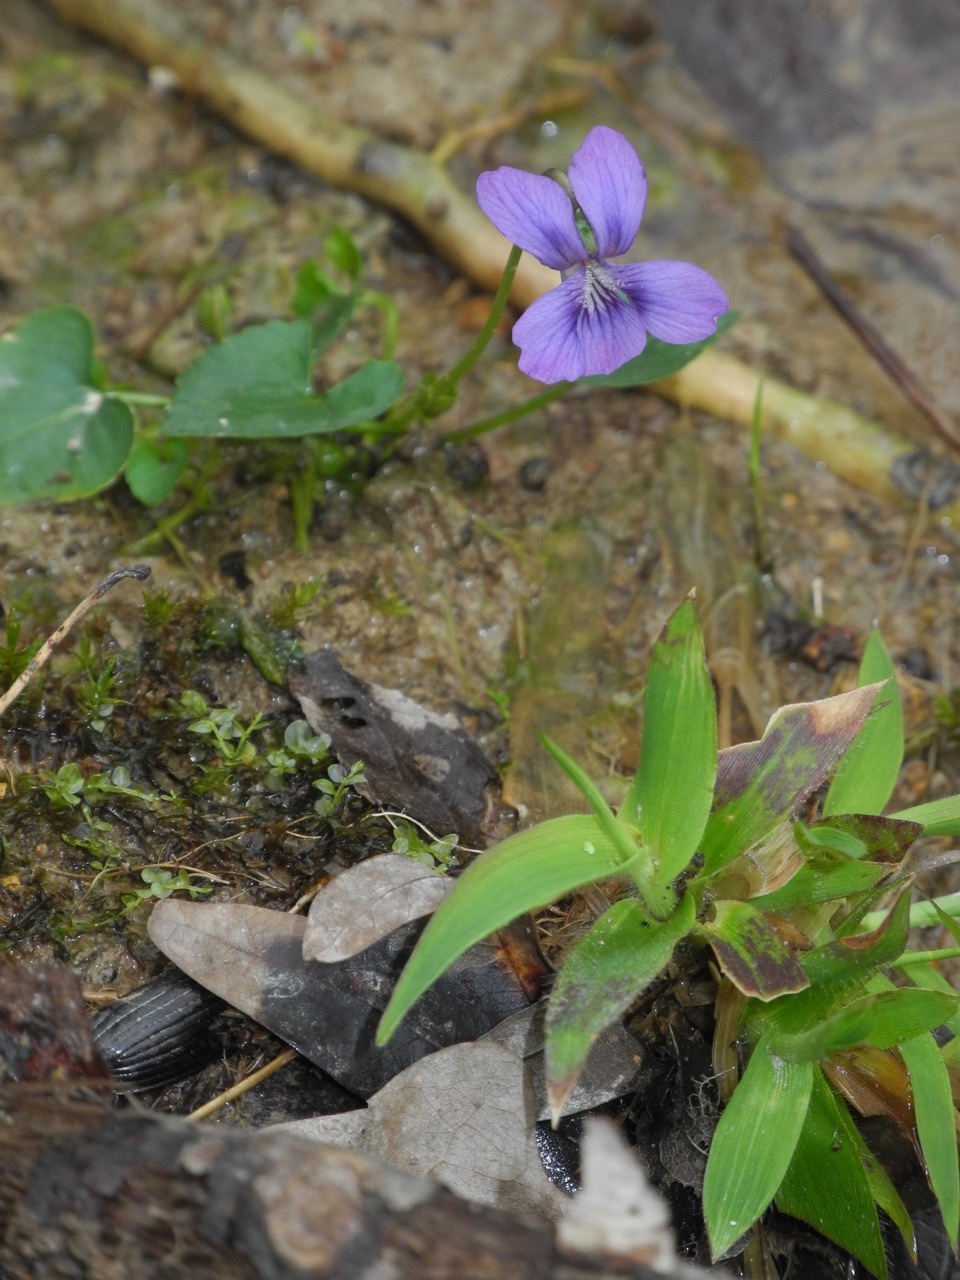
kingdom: Plantae
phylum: Tracheophyta
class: Magnoliopsida
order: Malpighiales
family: Violaceae
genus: Viola
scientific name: Viola cucullata
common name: Marsh blue violet
